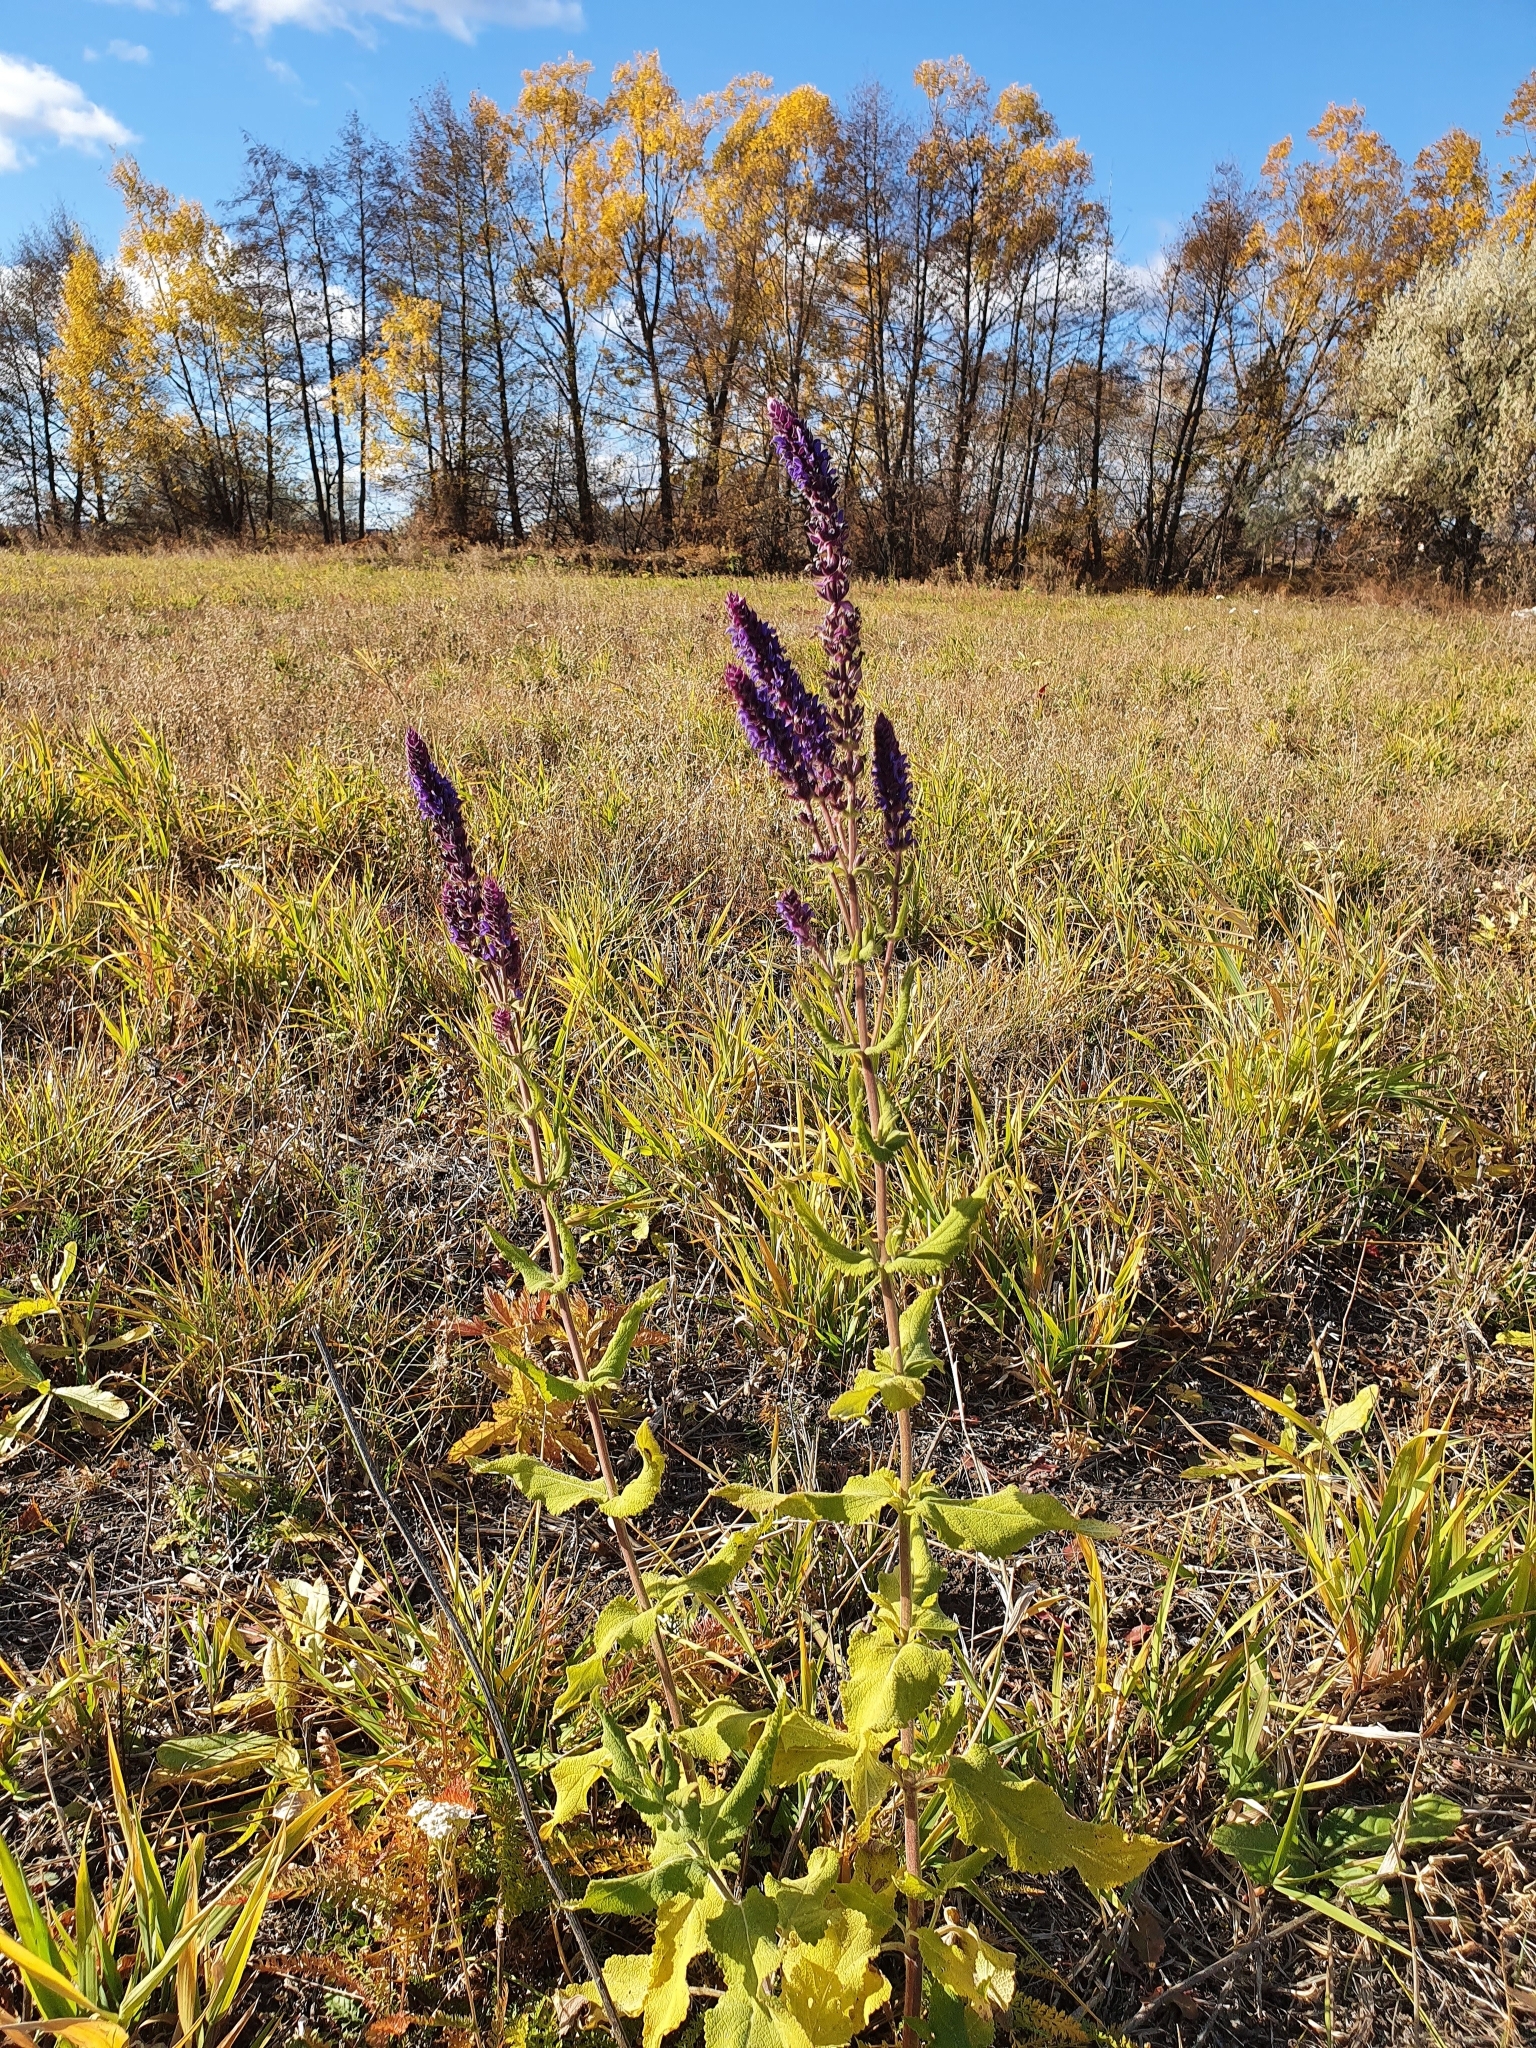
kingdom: Plantae
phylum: Tracheophyta
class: Magnoliopsida
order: Lamiales
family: Lamiaceae
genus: Salvia
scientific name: Salvia nemorosa
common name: Balkan clary
